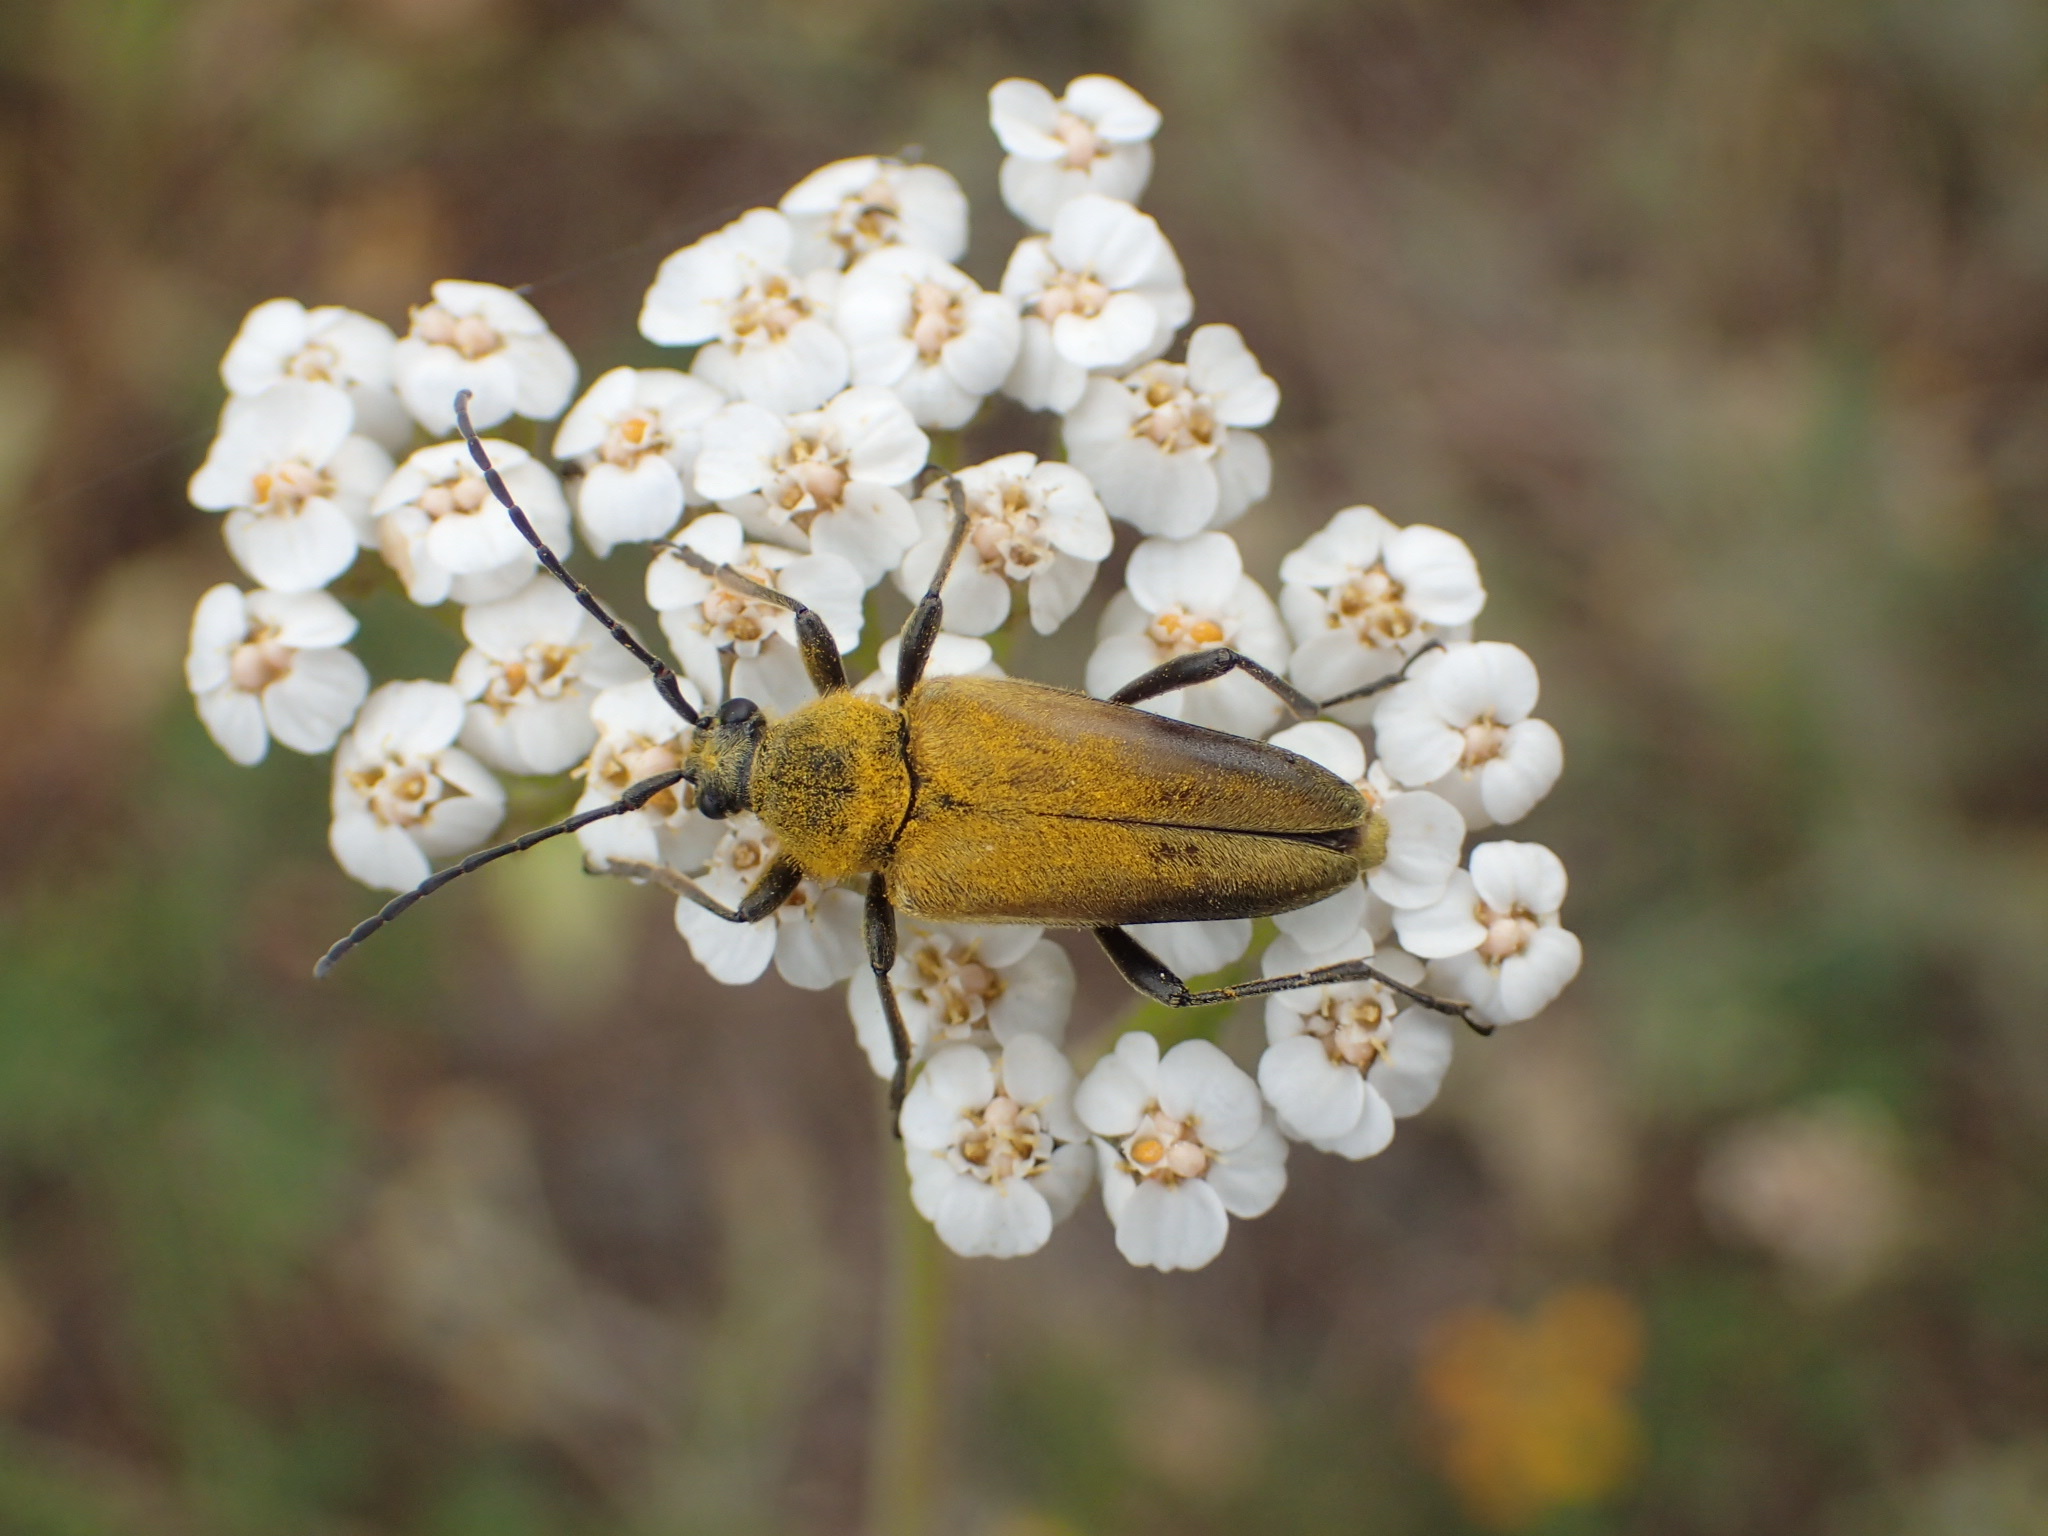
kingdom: Animalia
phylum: Arthropoda
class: Insecta
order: Coleoptera
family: Cerambycidae
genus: Cosmosalia
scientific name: Cosmosalia chrysocoma
